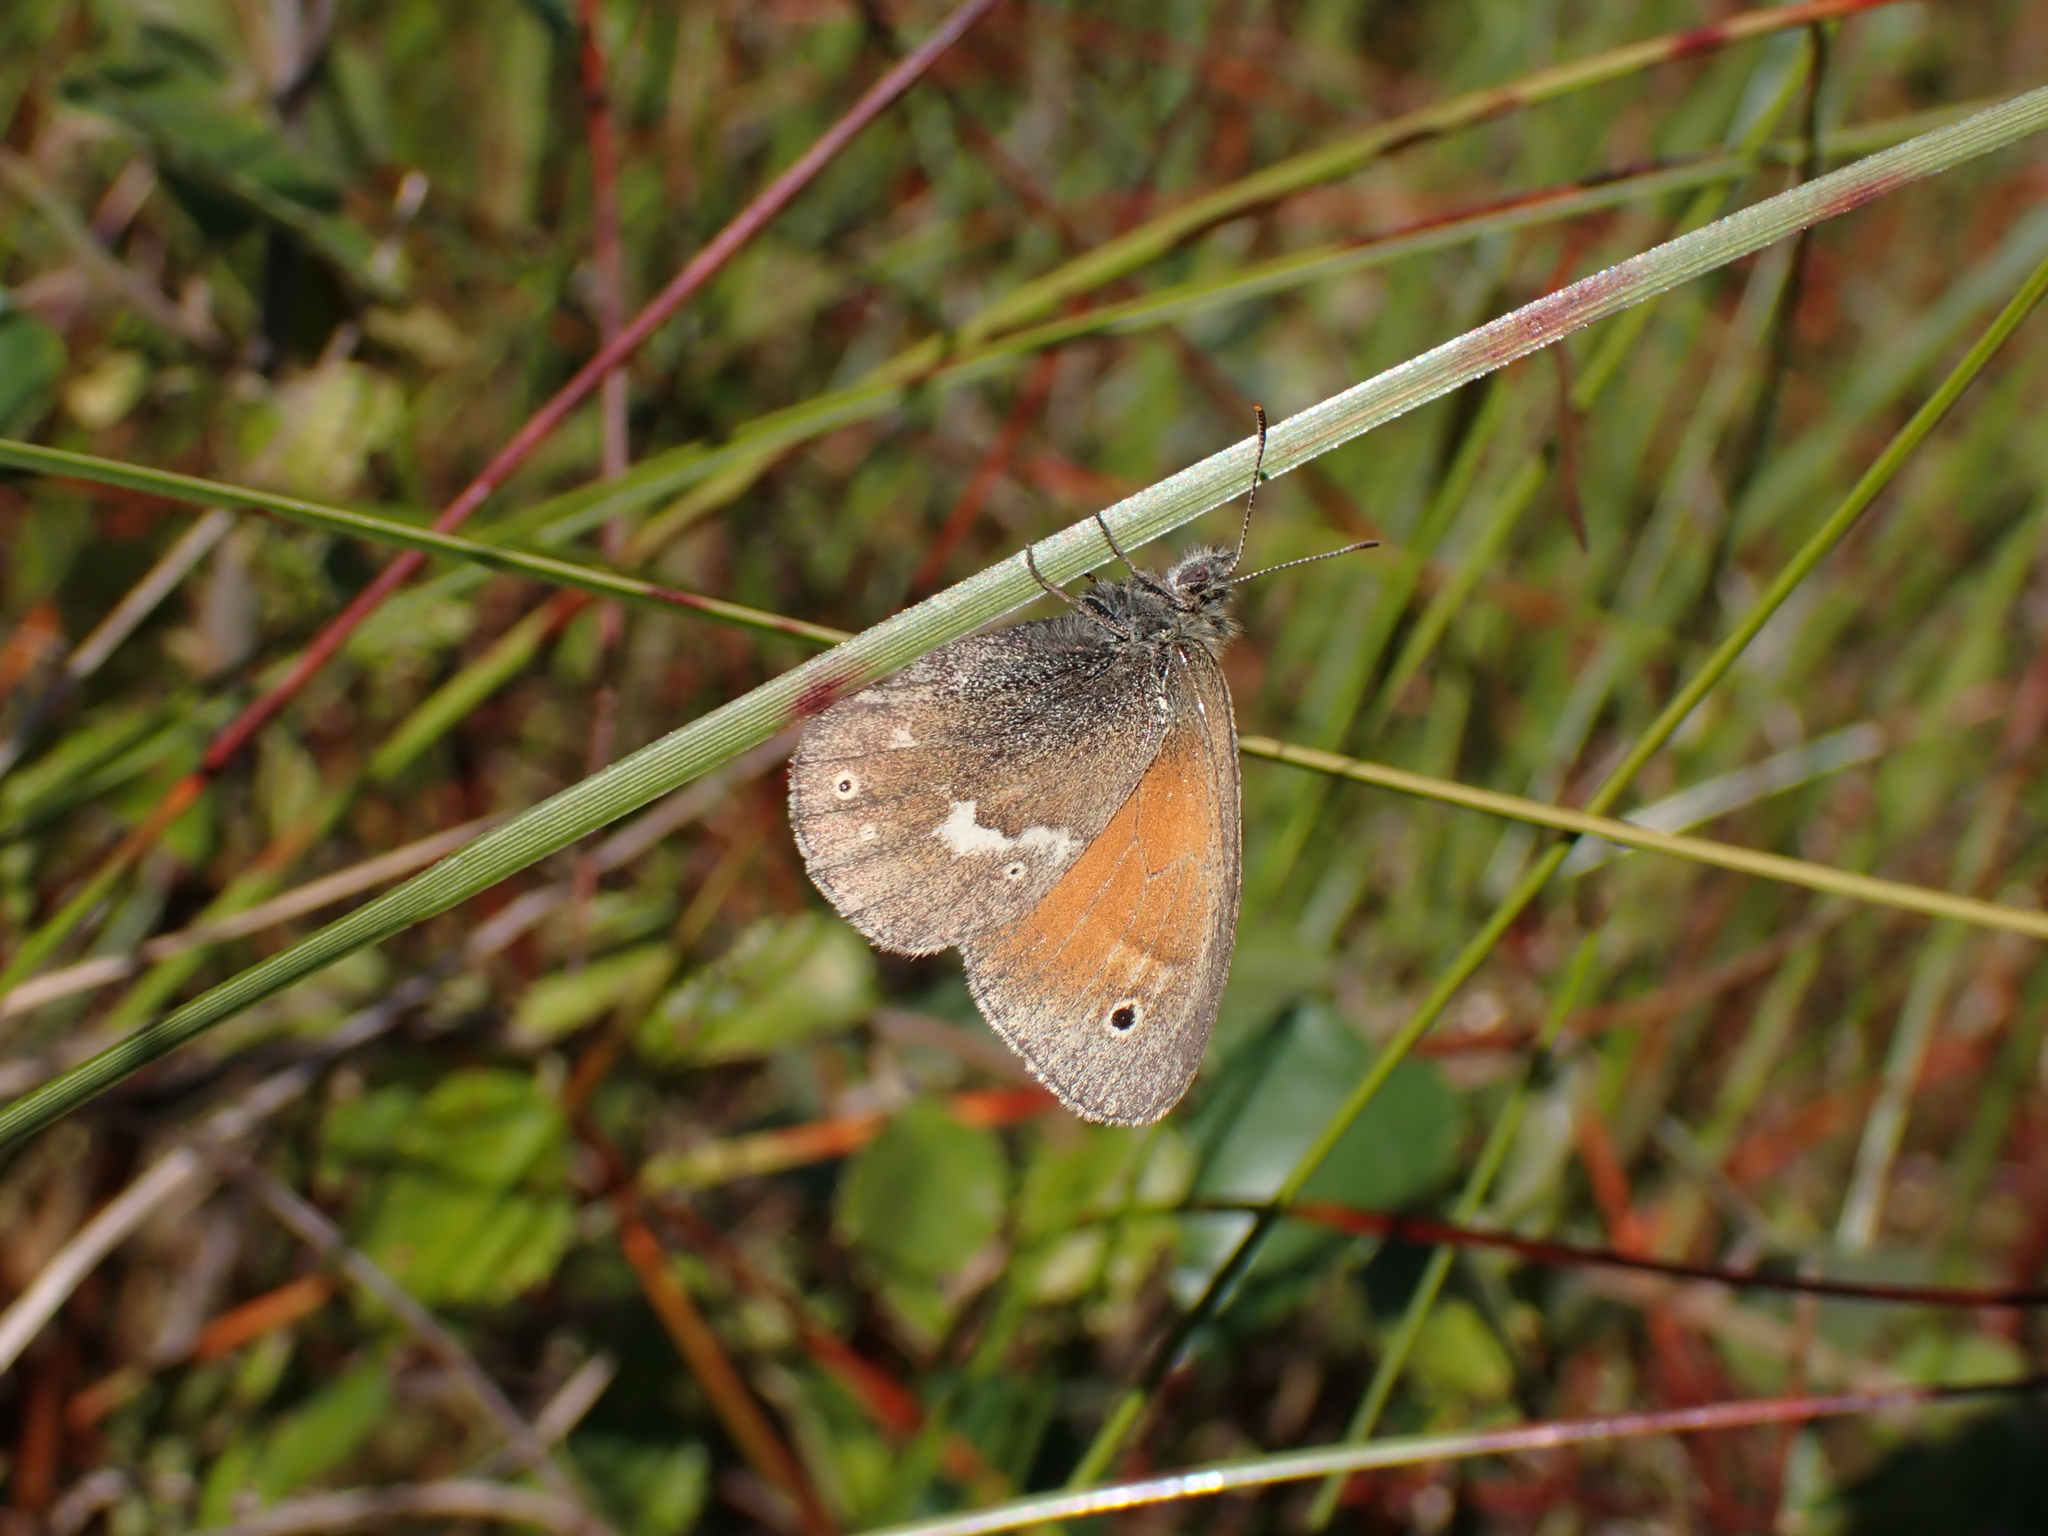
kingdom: Animalia
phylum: Arthropoda
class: Insecta
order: Lepidoptera
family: Nymphalidae
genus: Coenonympha
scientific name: Coenonympha tullia
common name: Large heath
